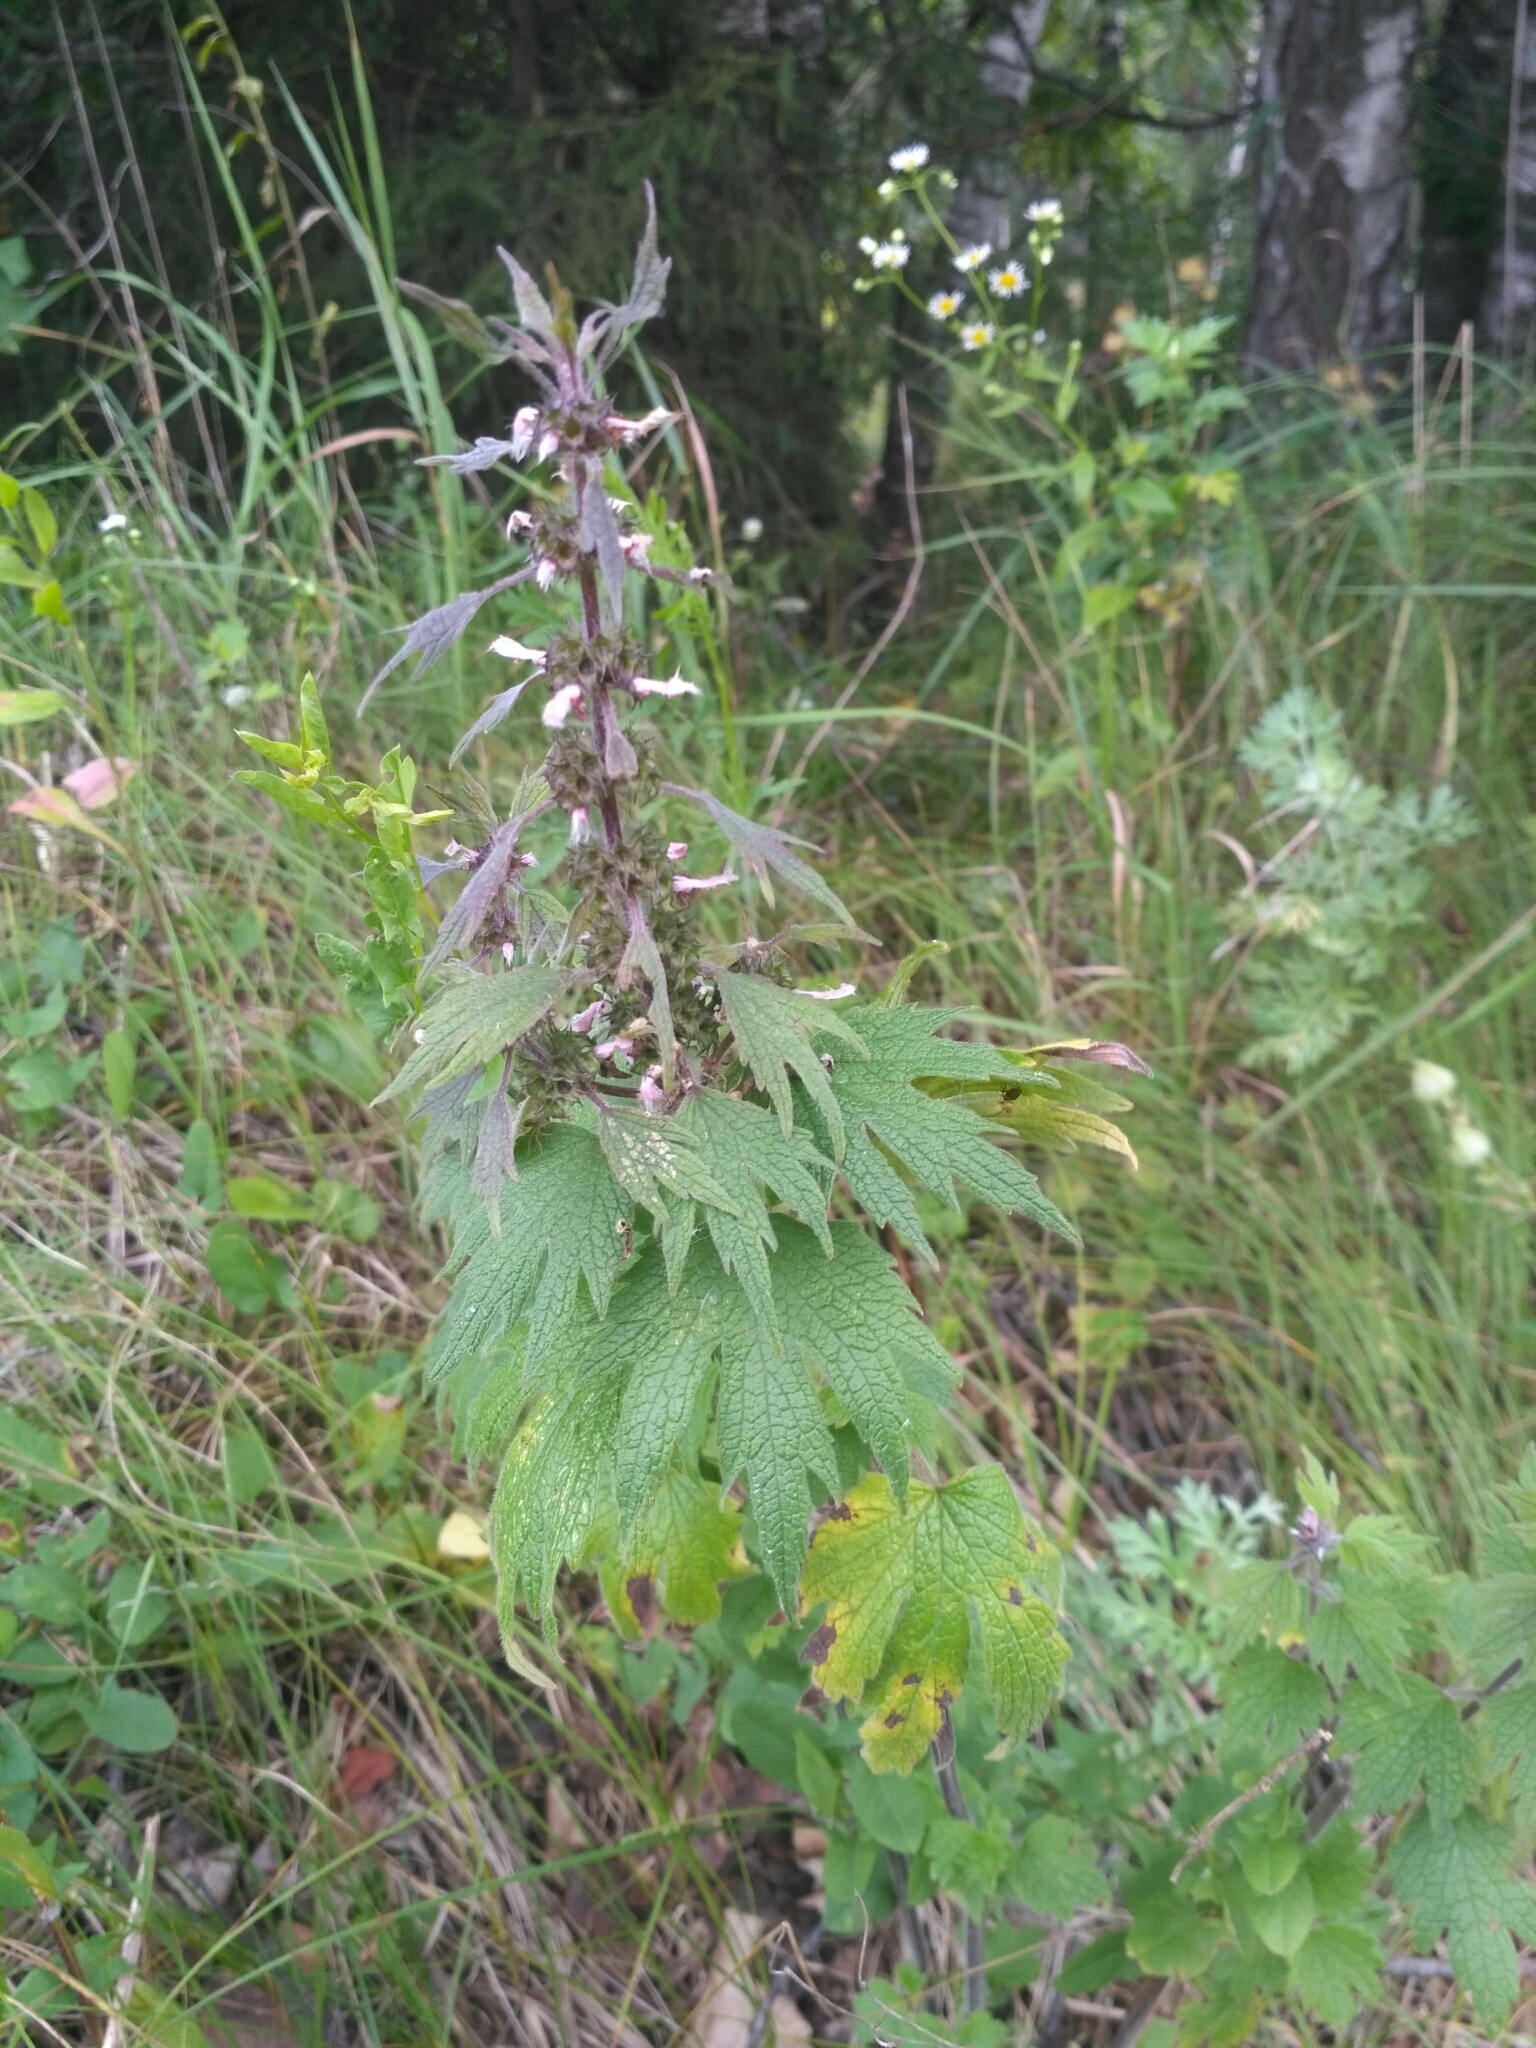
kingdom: Plantae
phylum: Tracheophyta
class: Magnoliopsida
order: Lamiales
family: Lamiaceae
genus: Leonurus
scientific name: Leonurus quinquelobatus
